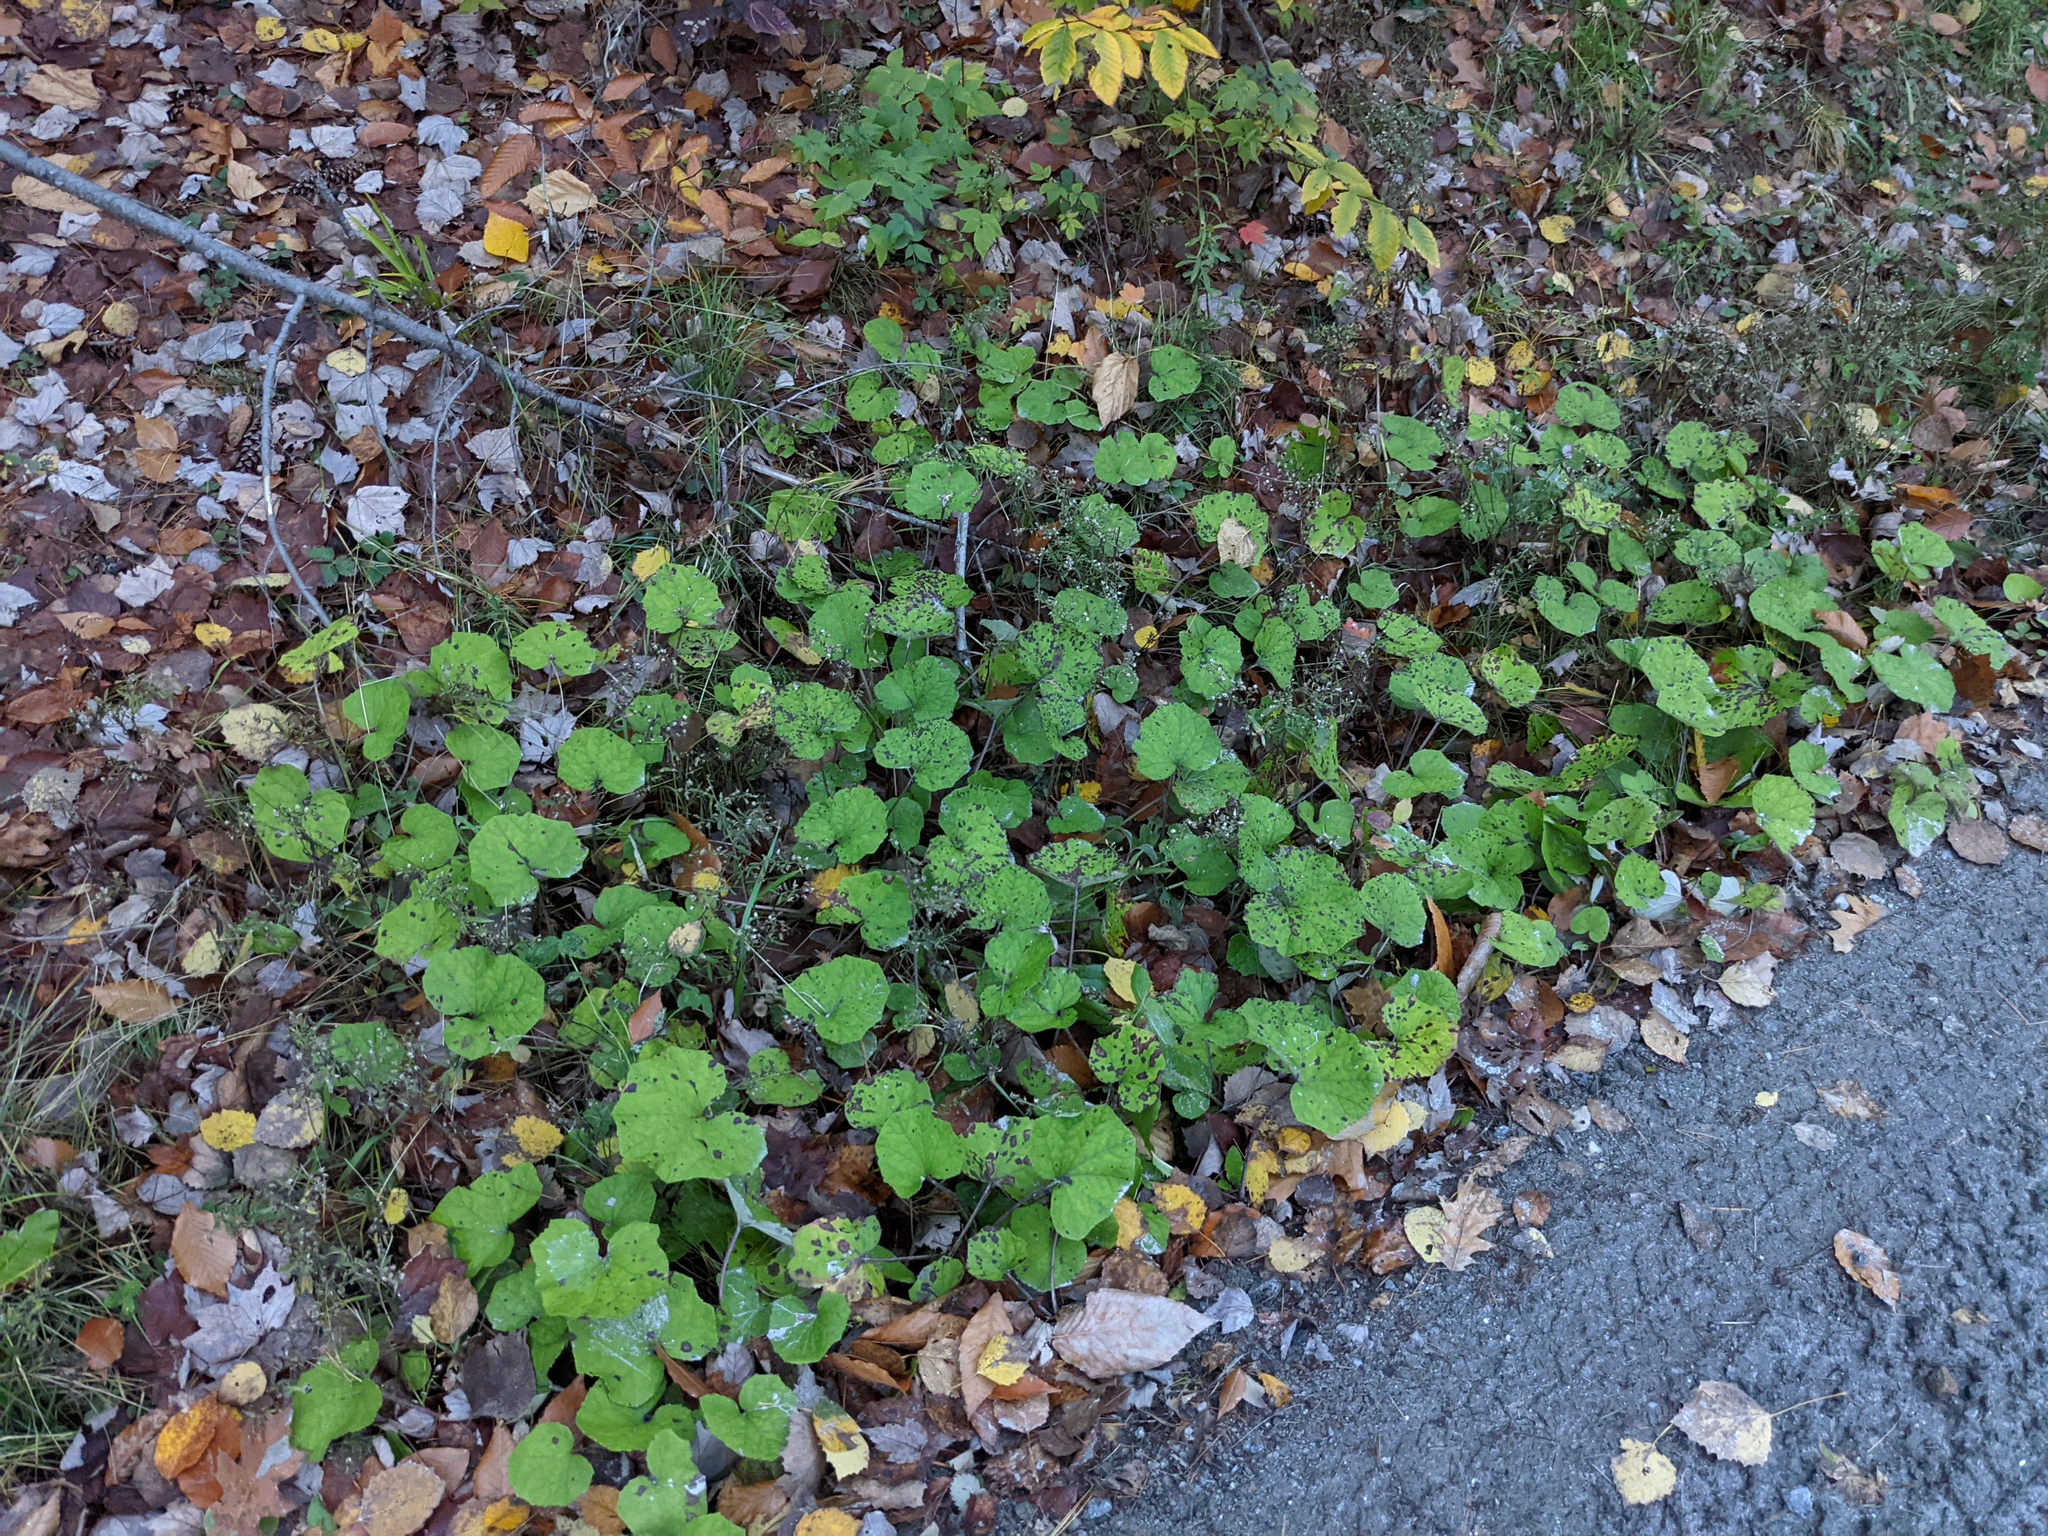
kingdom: Plantae
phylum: Tracheophyta
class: Magnoliopsida
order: Asterales
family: Asteraceae
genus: Tussilago
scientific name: Tussilago farfara
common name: Coltsfoot
